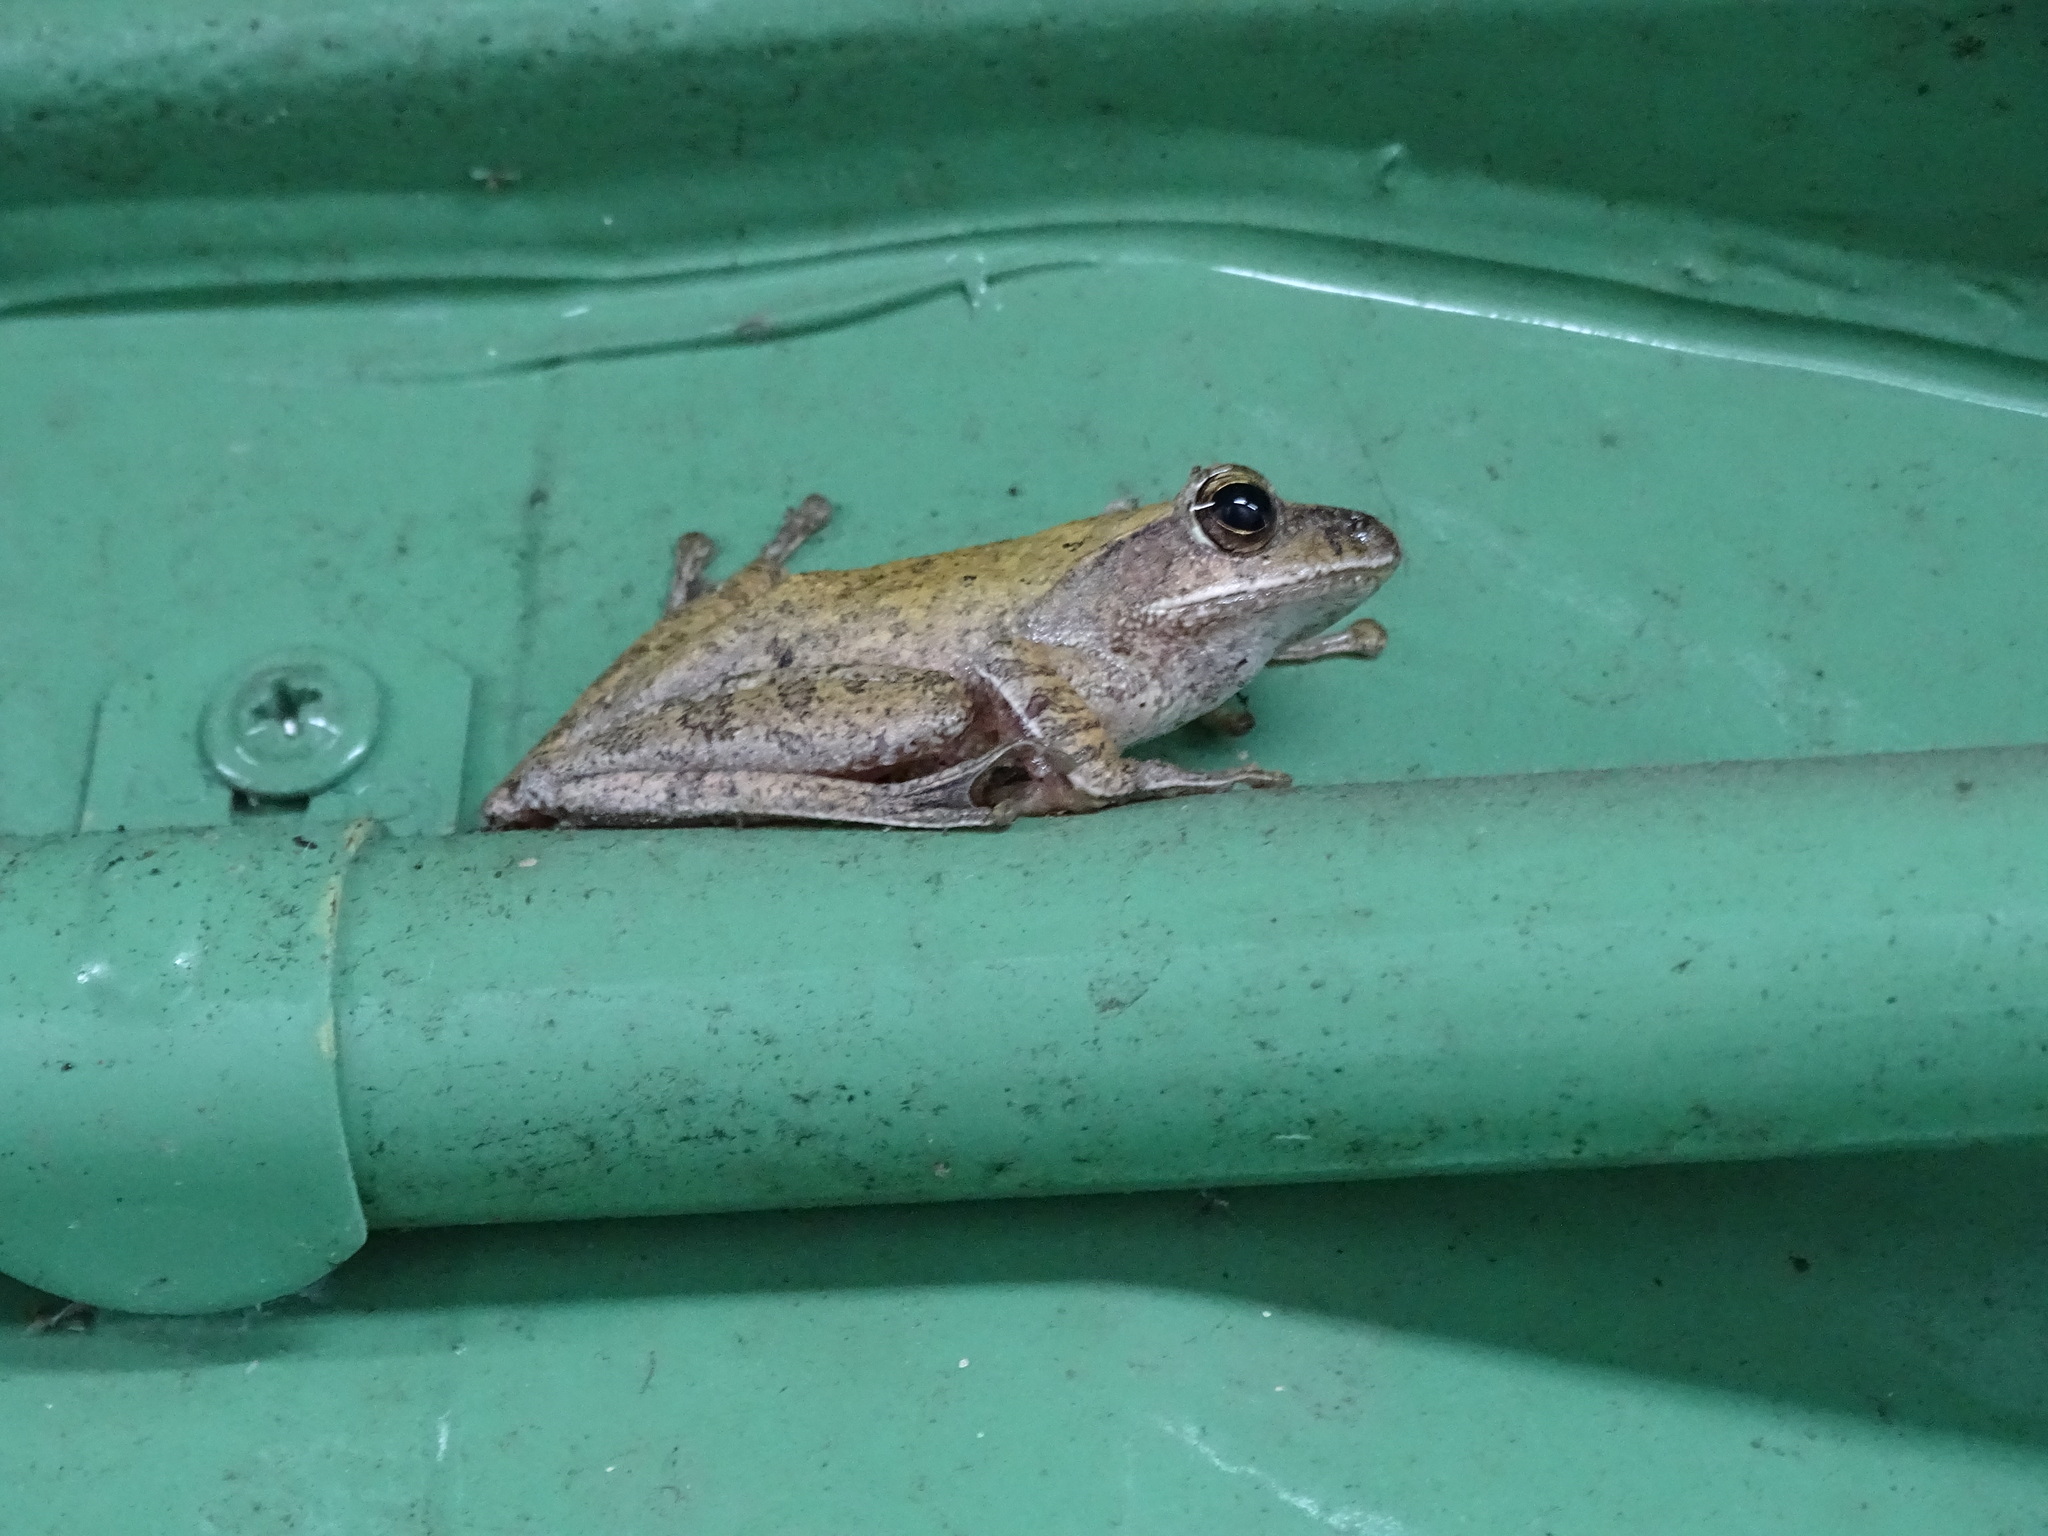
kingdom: Animalia
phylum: Chordata
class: Amphibia
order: Anura
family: Rhacophoridae
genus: Polypedates
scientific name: Polypedates megacephalus
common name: Hong kong whipping frog
